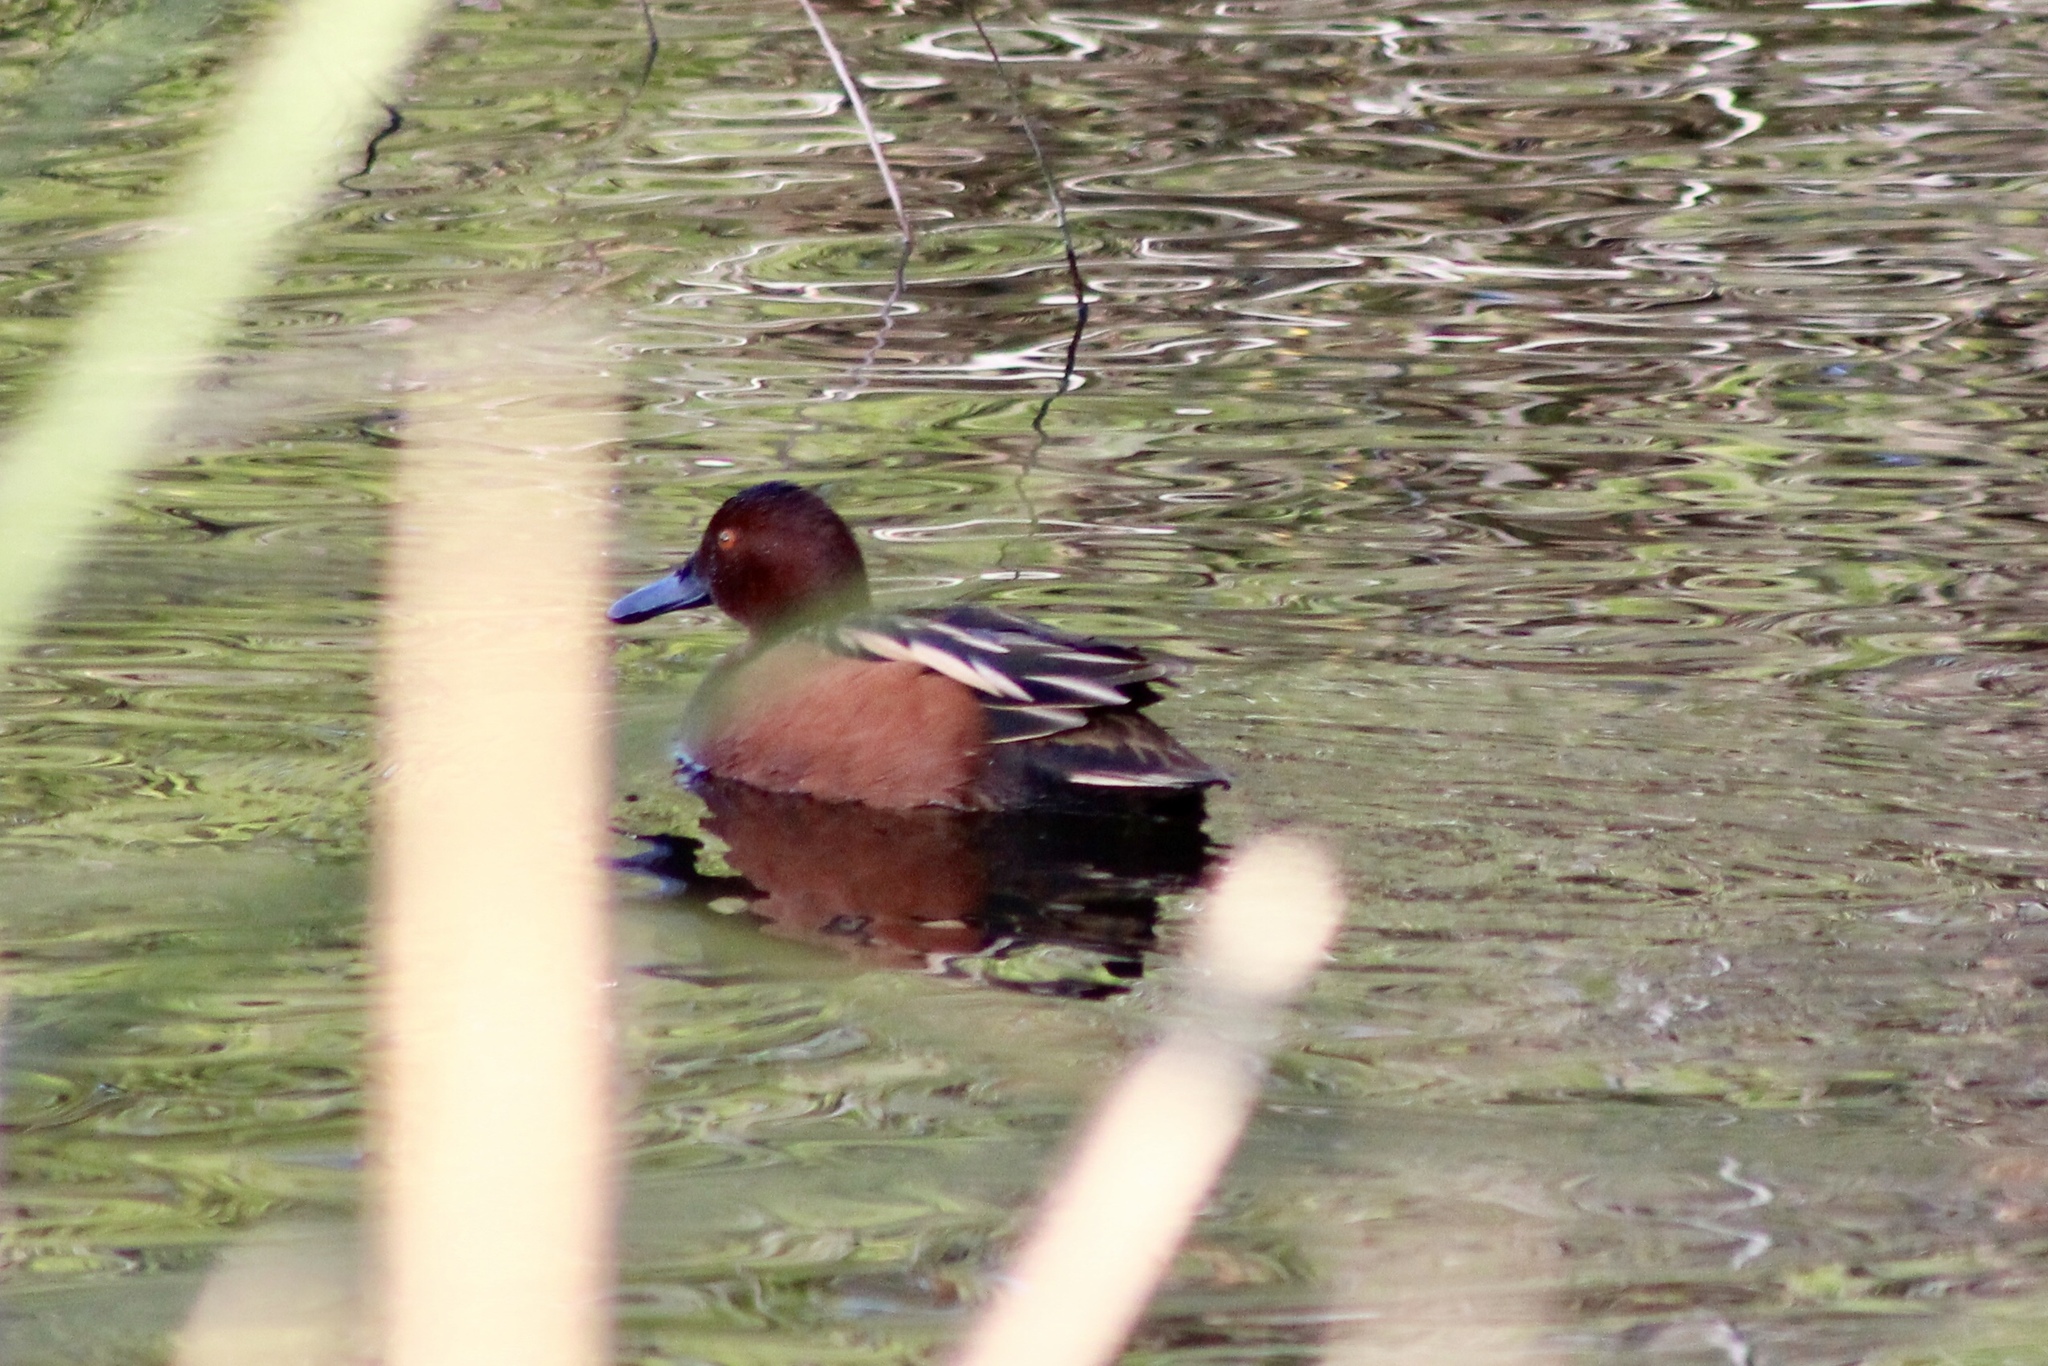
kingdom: Animalia
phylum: Chordata
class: Aves
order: Anseriformes
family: Anatidae
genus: Spatula
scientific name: Spatula cyanoptera
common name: Cinnamon teal
